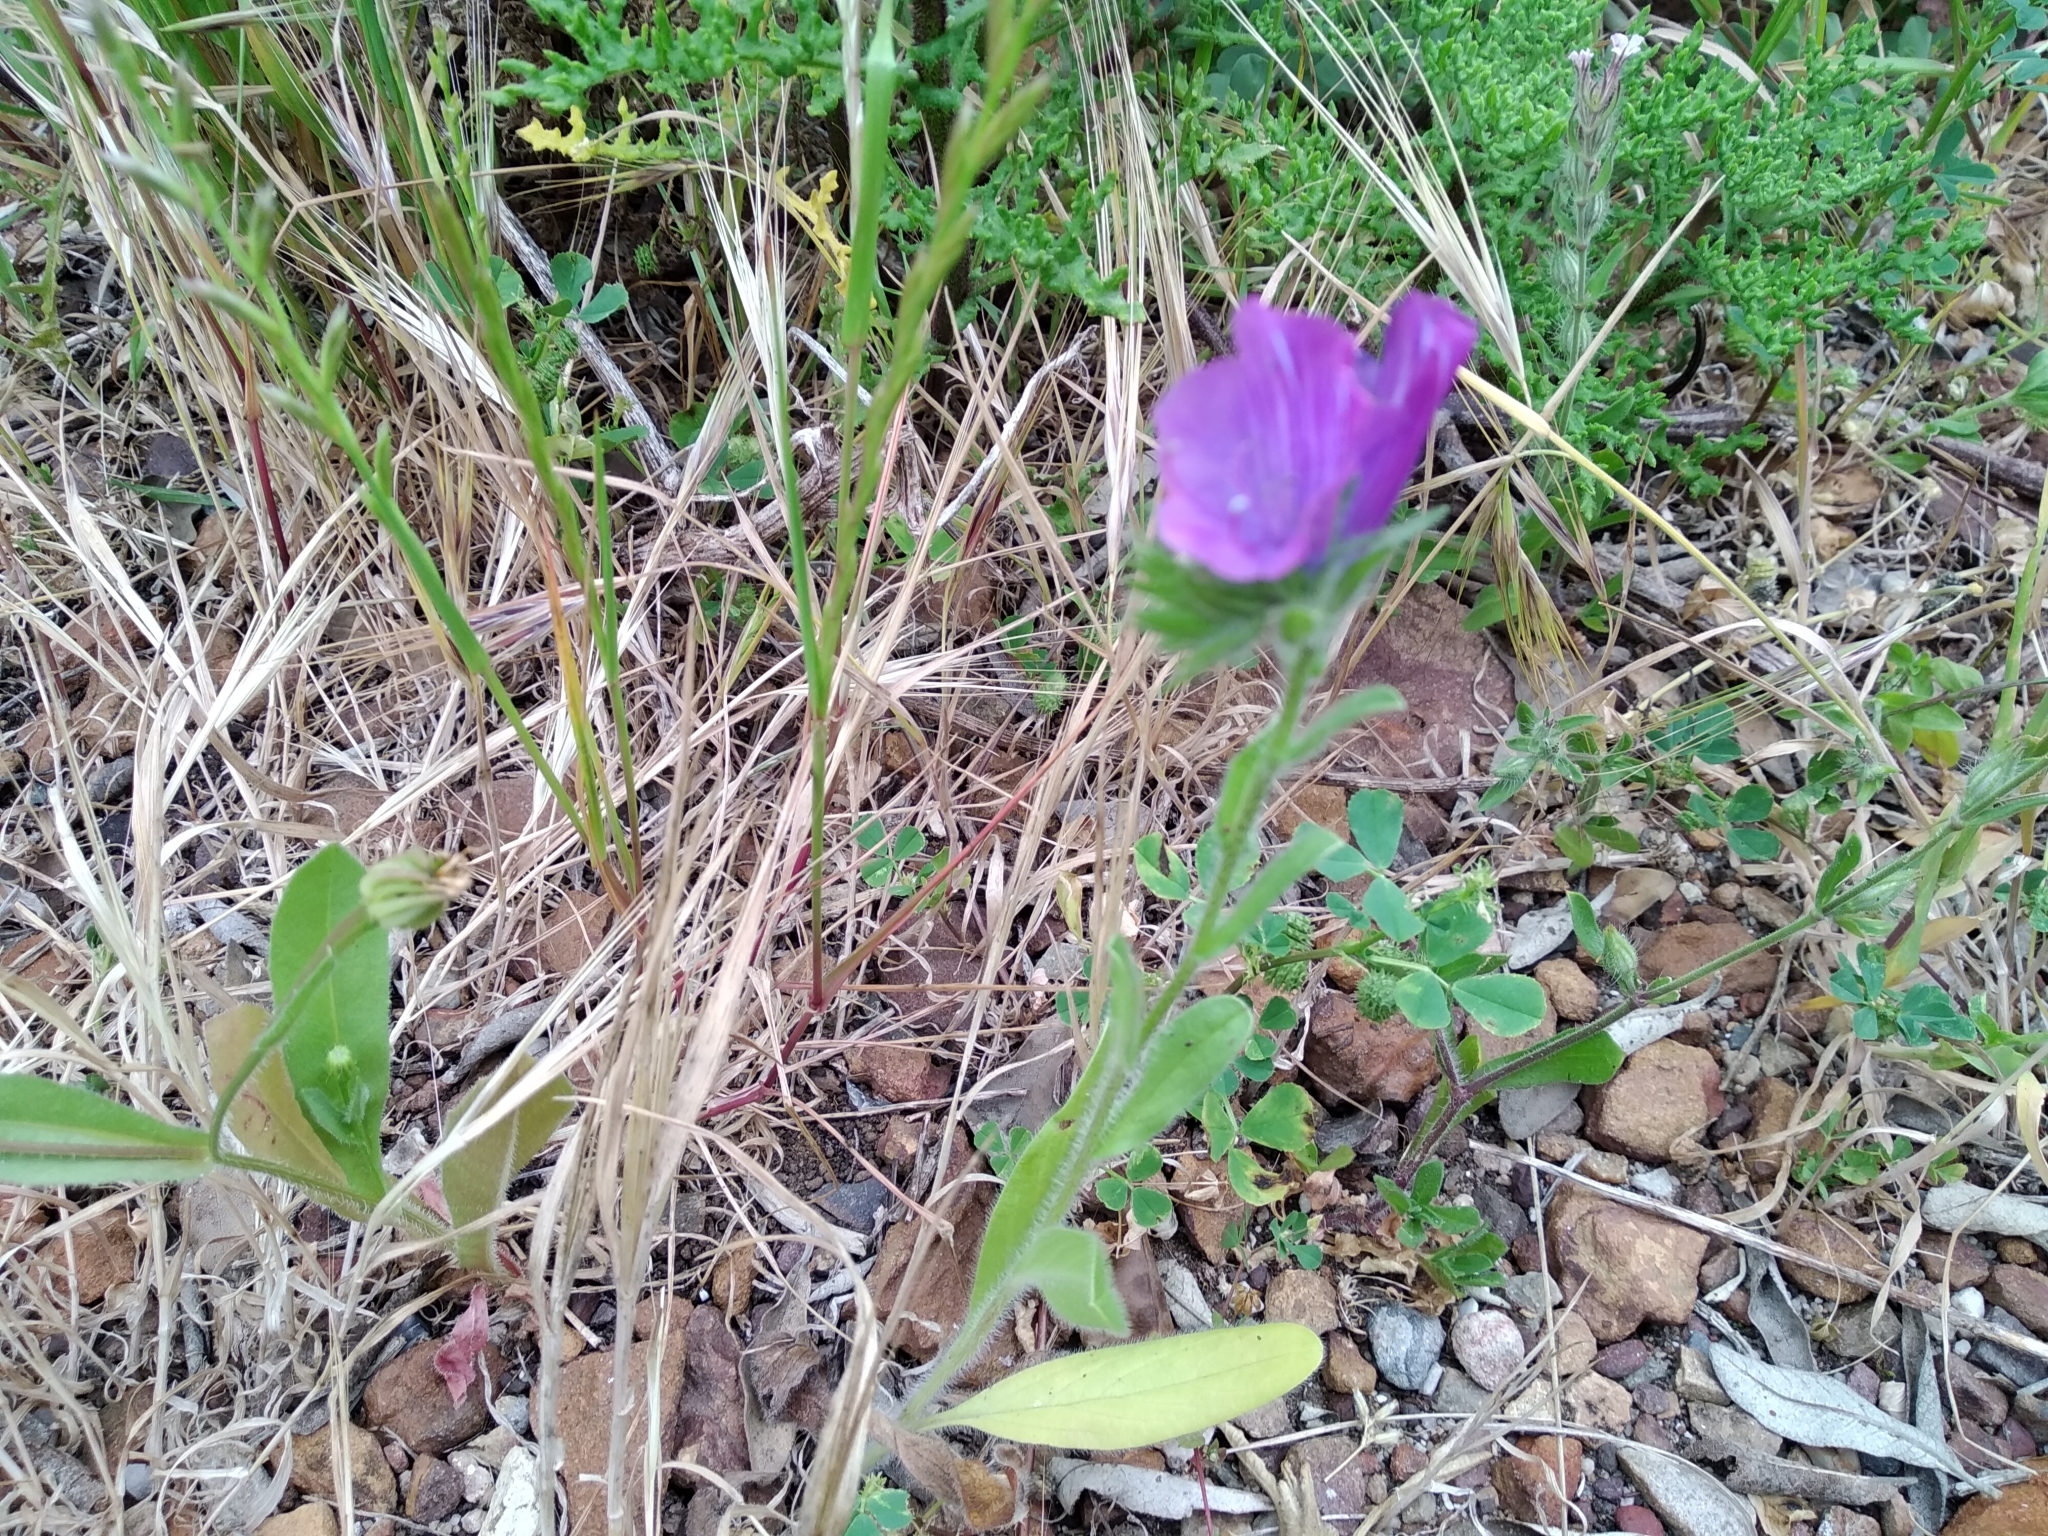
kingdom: Plantae
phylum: Tracheophyta
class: Magnoliopsida
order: Boraginales
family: Boraginaceae
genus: Echium
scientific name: Echium plantagineum
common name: Purple viper's-bugloss
